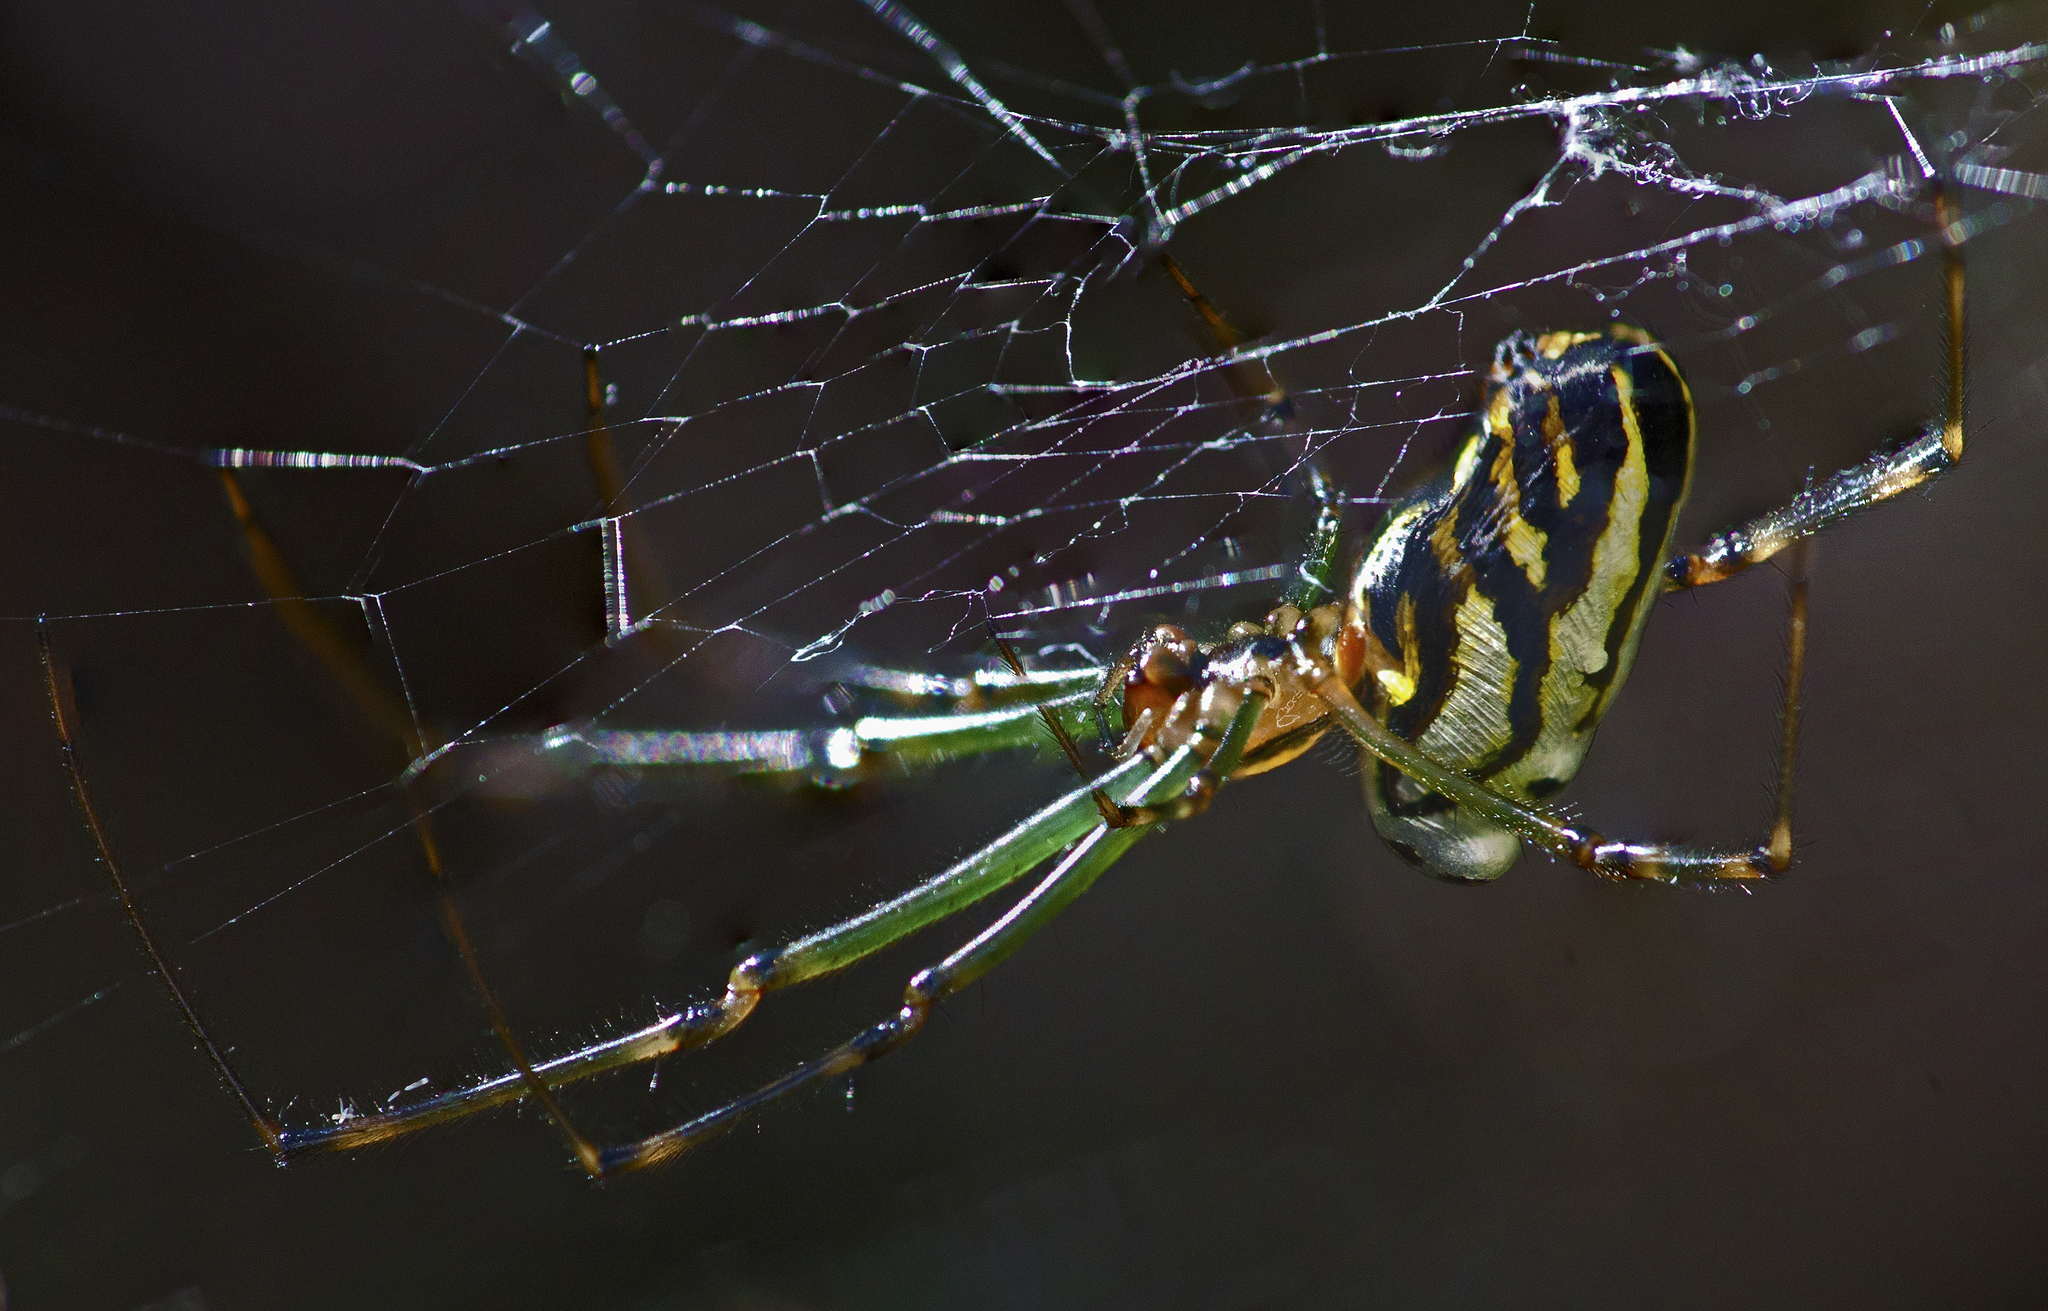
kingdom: Animalia
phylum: Arthropoda
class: Arachnida
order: Araneae
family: Tetragnathidae
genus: Leucauge
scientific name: Leucauge dromedaria
